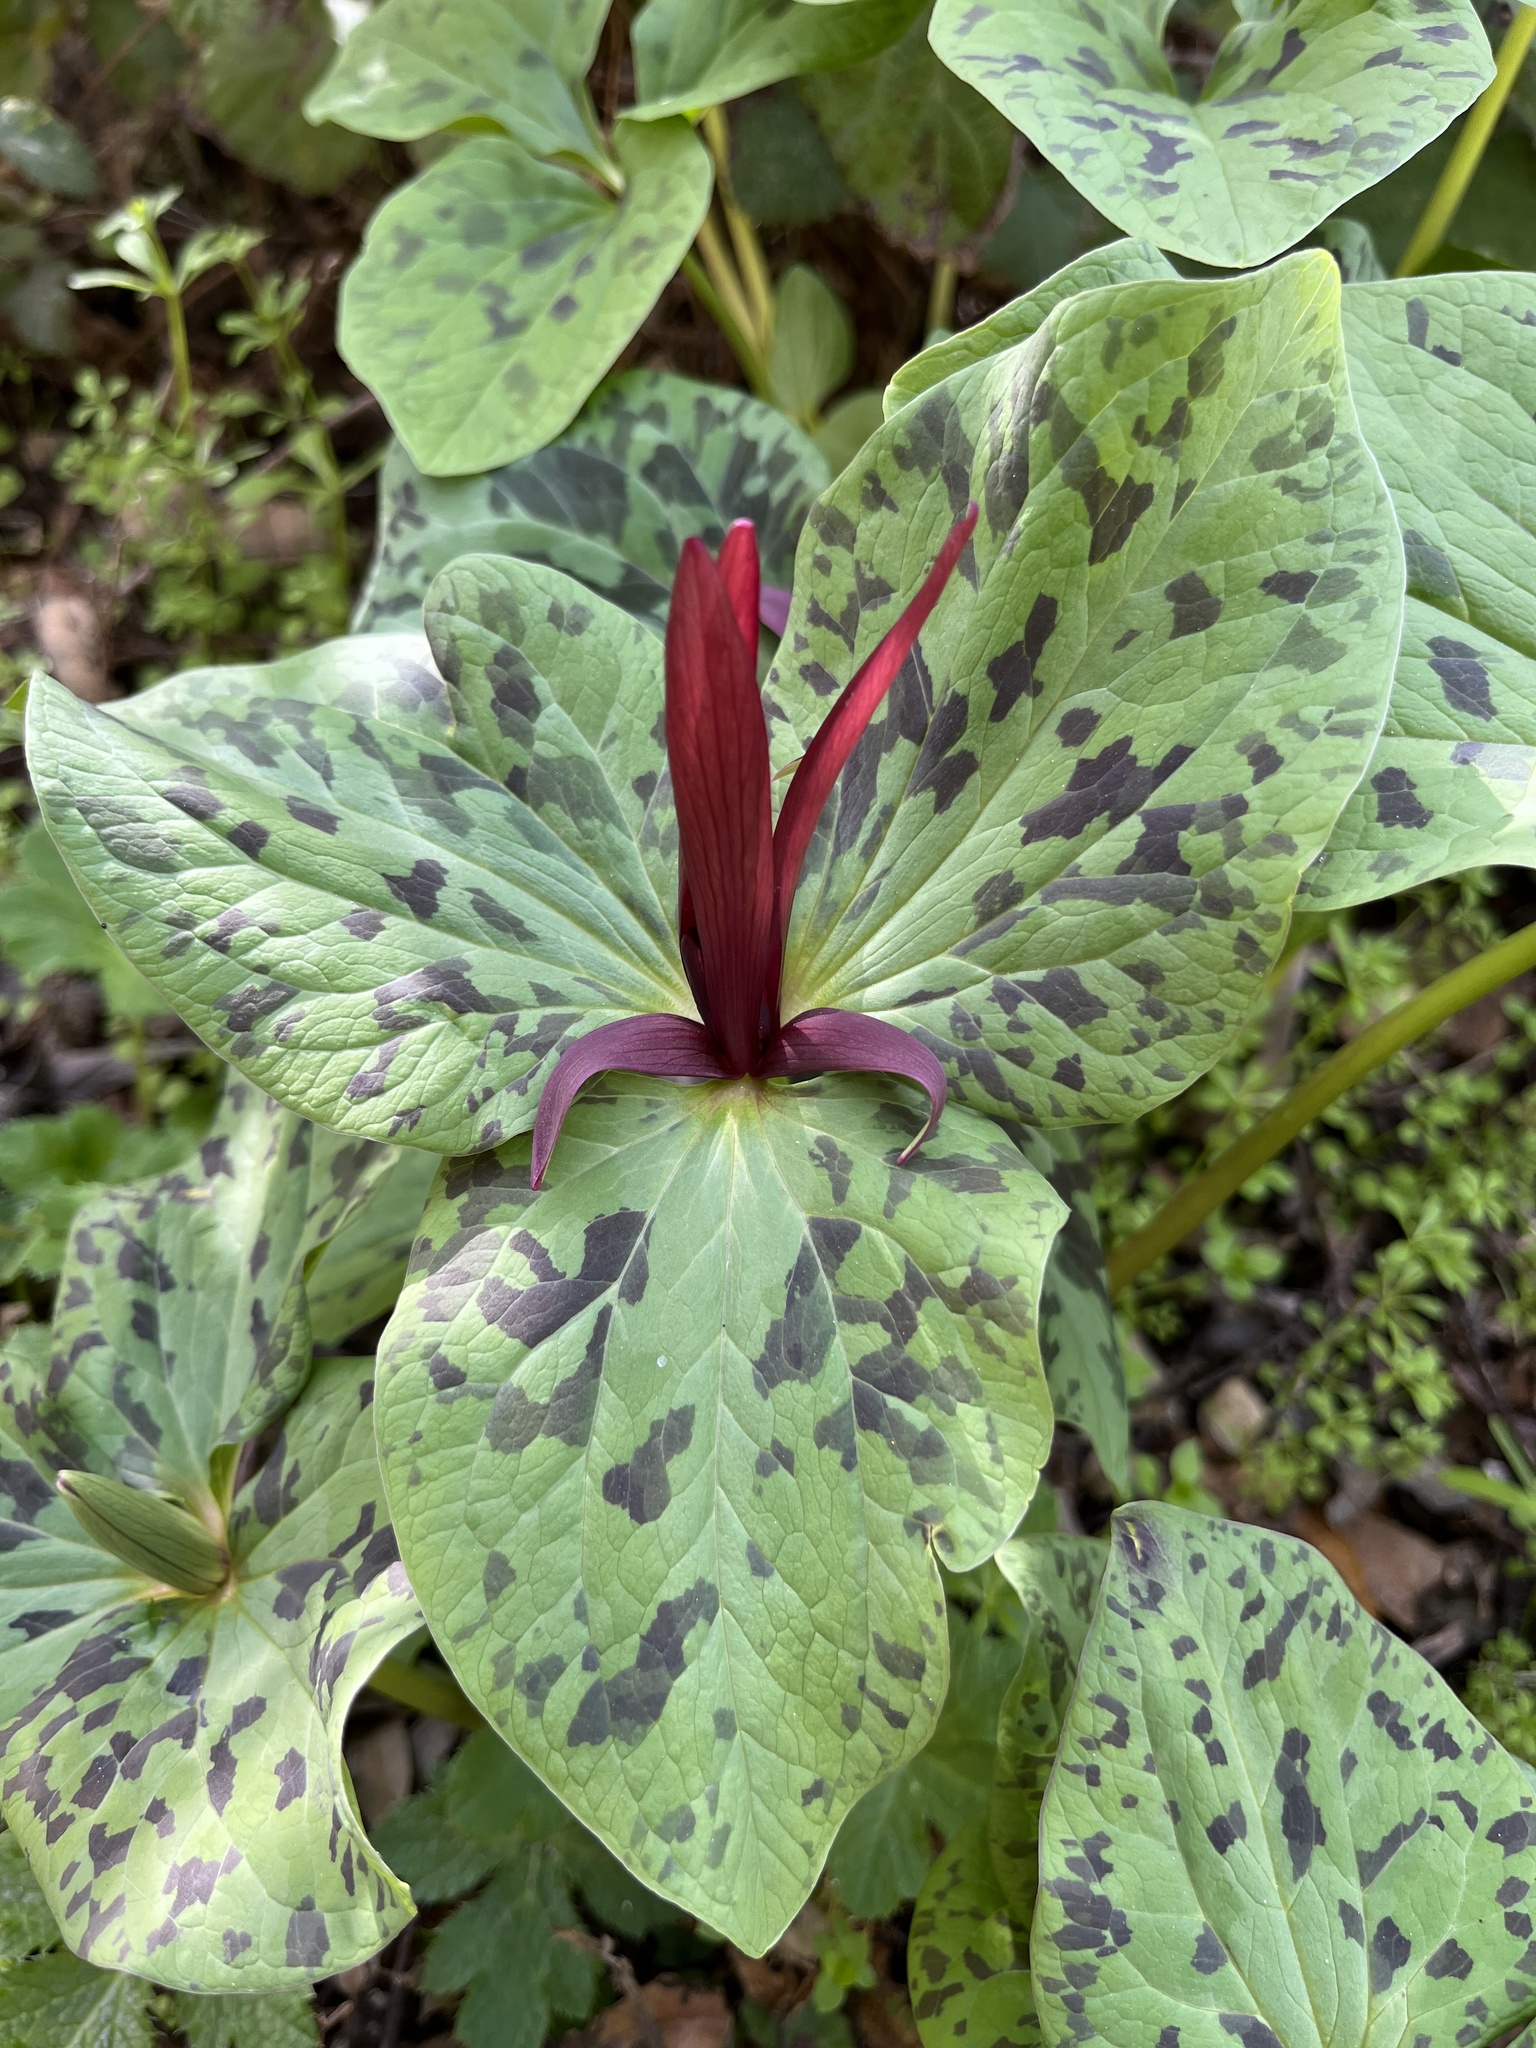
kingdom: Plantae
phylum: Tracheophyta
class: Liliopsida
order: Liliales
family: Melanthiaceae
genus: Trillium
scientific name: Trillium angustipetalum
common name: Narrow-petaled trillium
